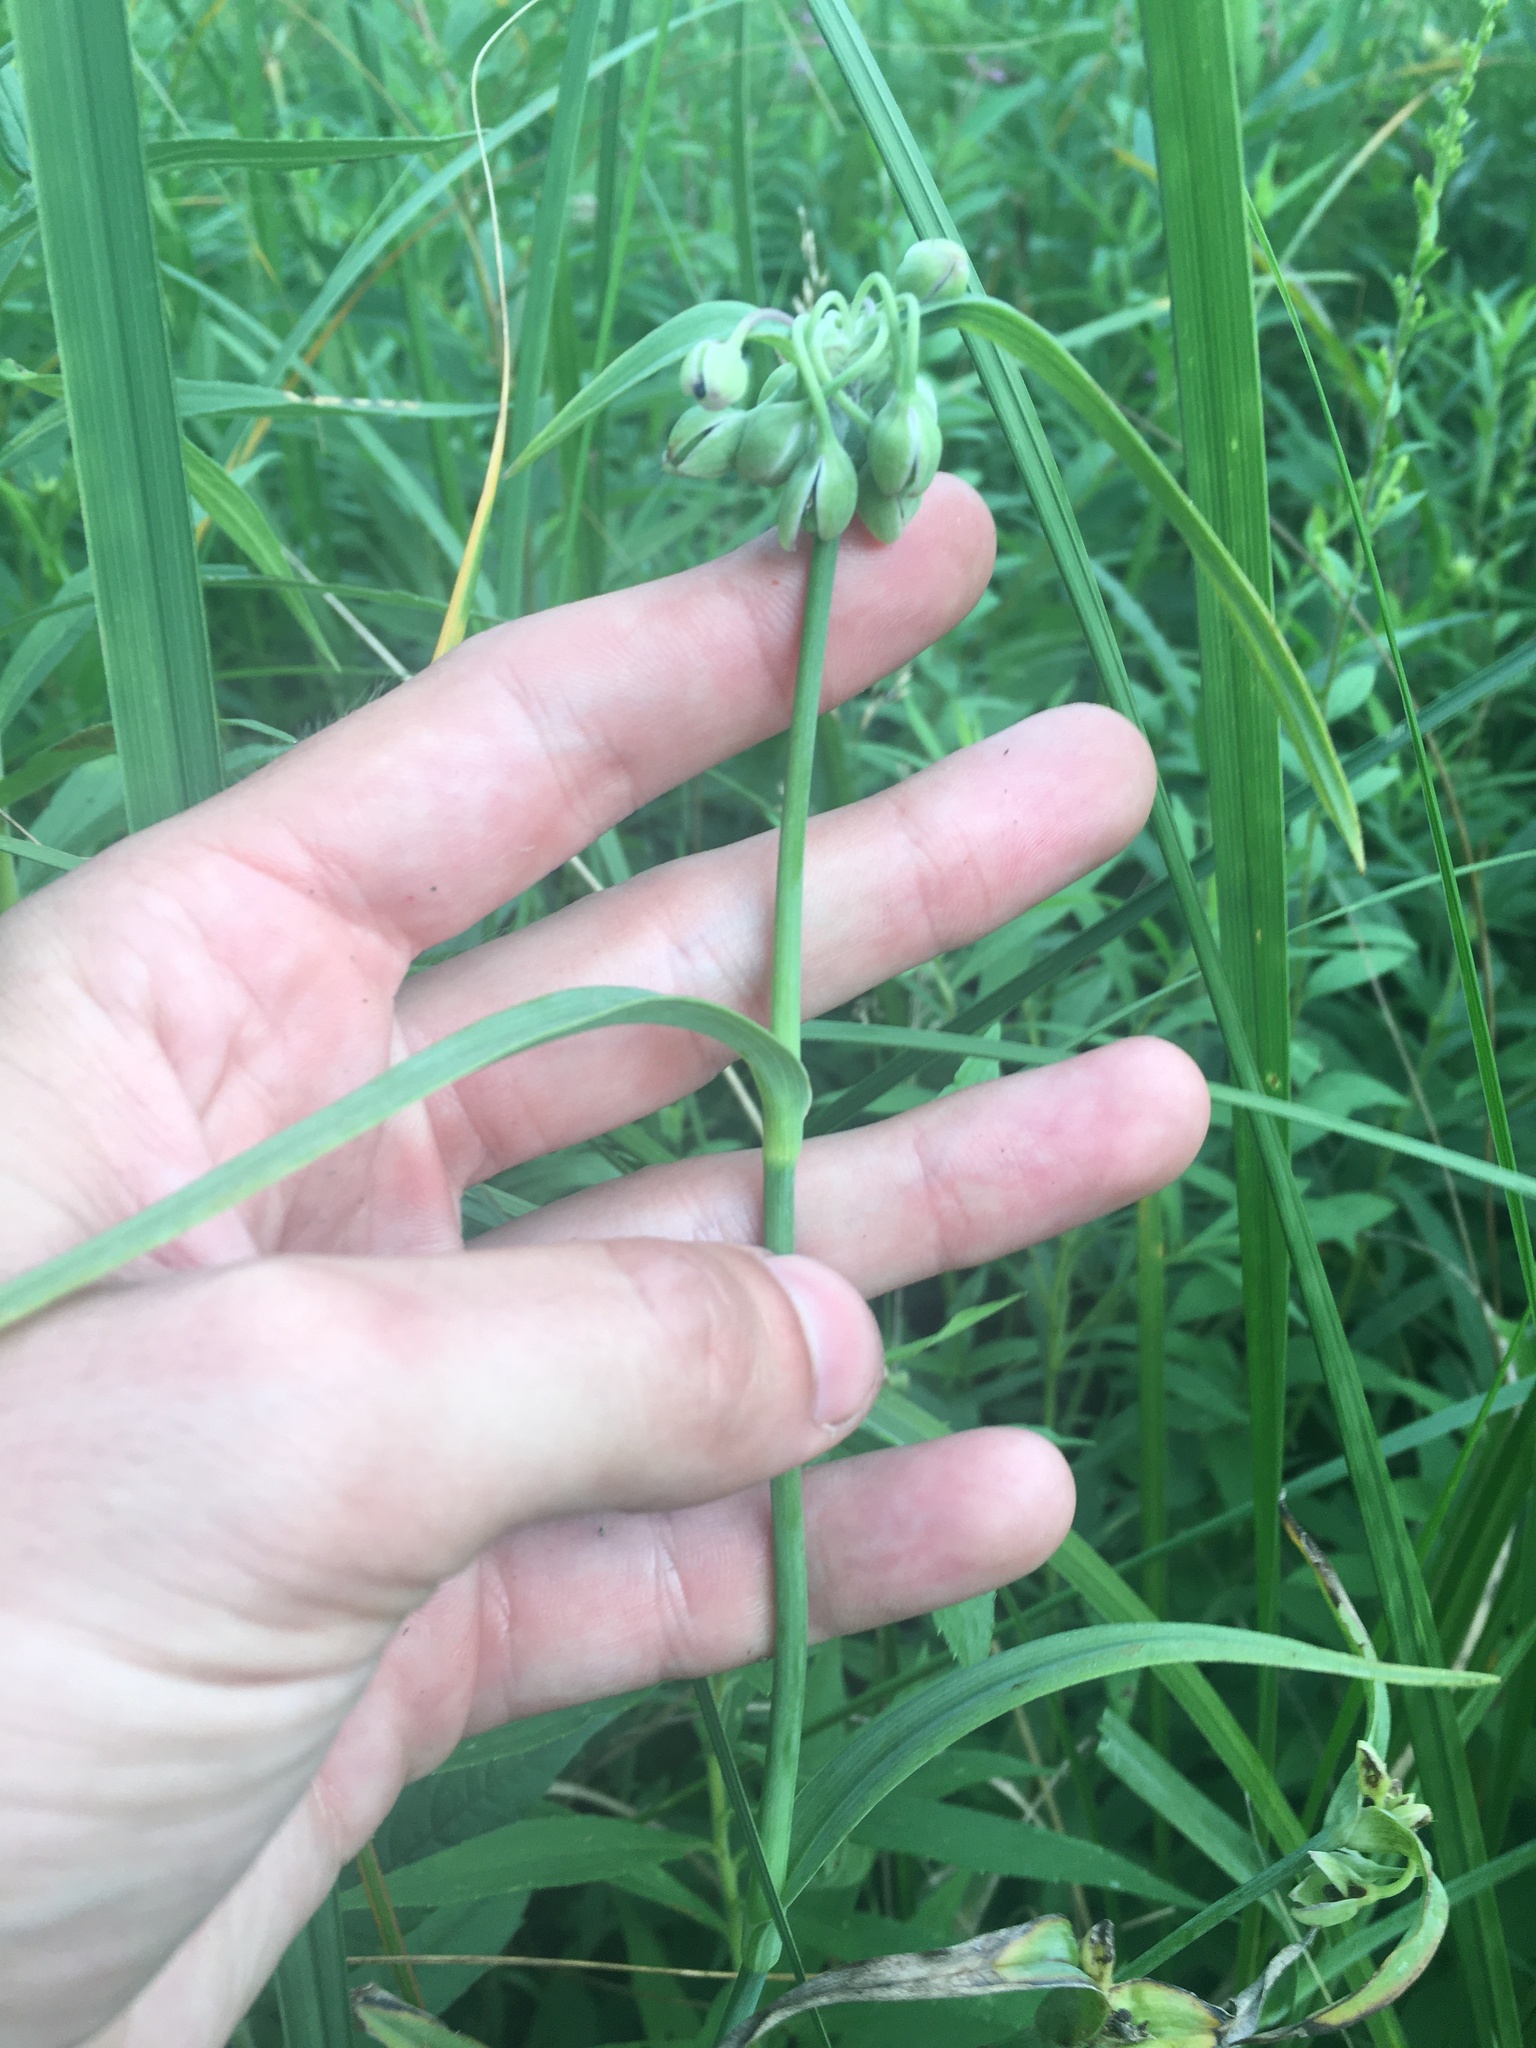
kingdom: Plantae
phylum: Tracheophyta
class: Liliopsida
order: Commelinales
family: Commelinaceae
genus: Tradescantia
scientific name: Tradescantia ohiensis
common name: Ohio spiderwort
